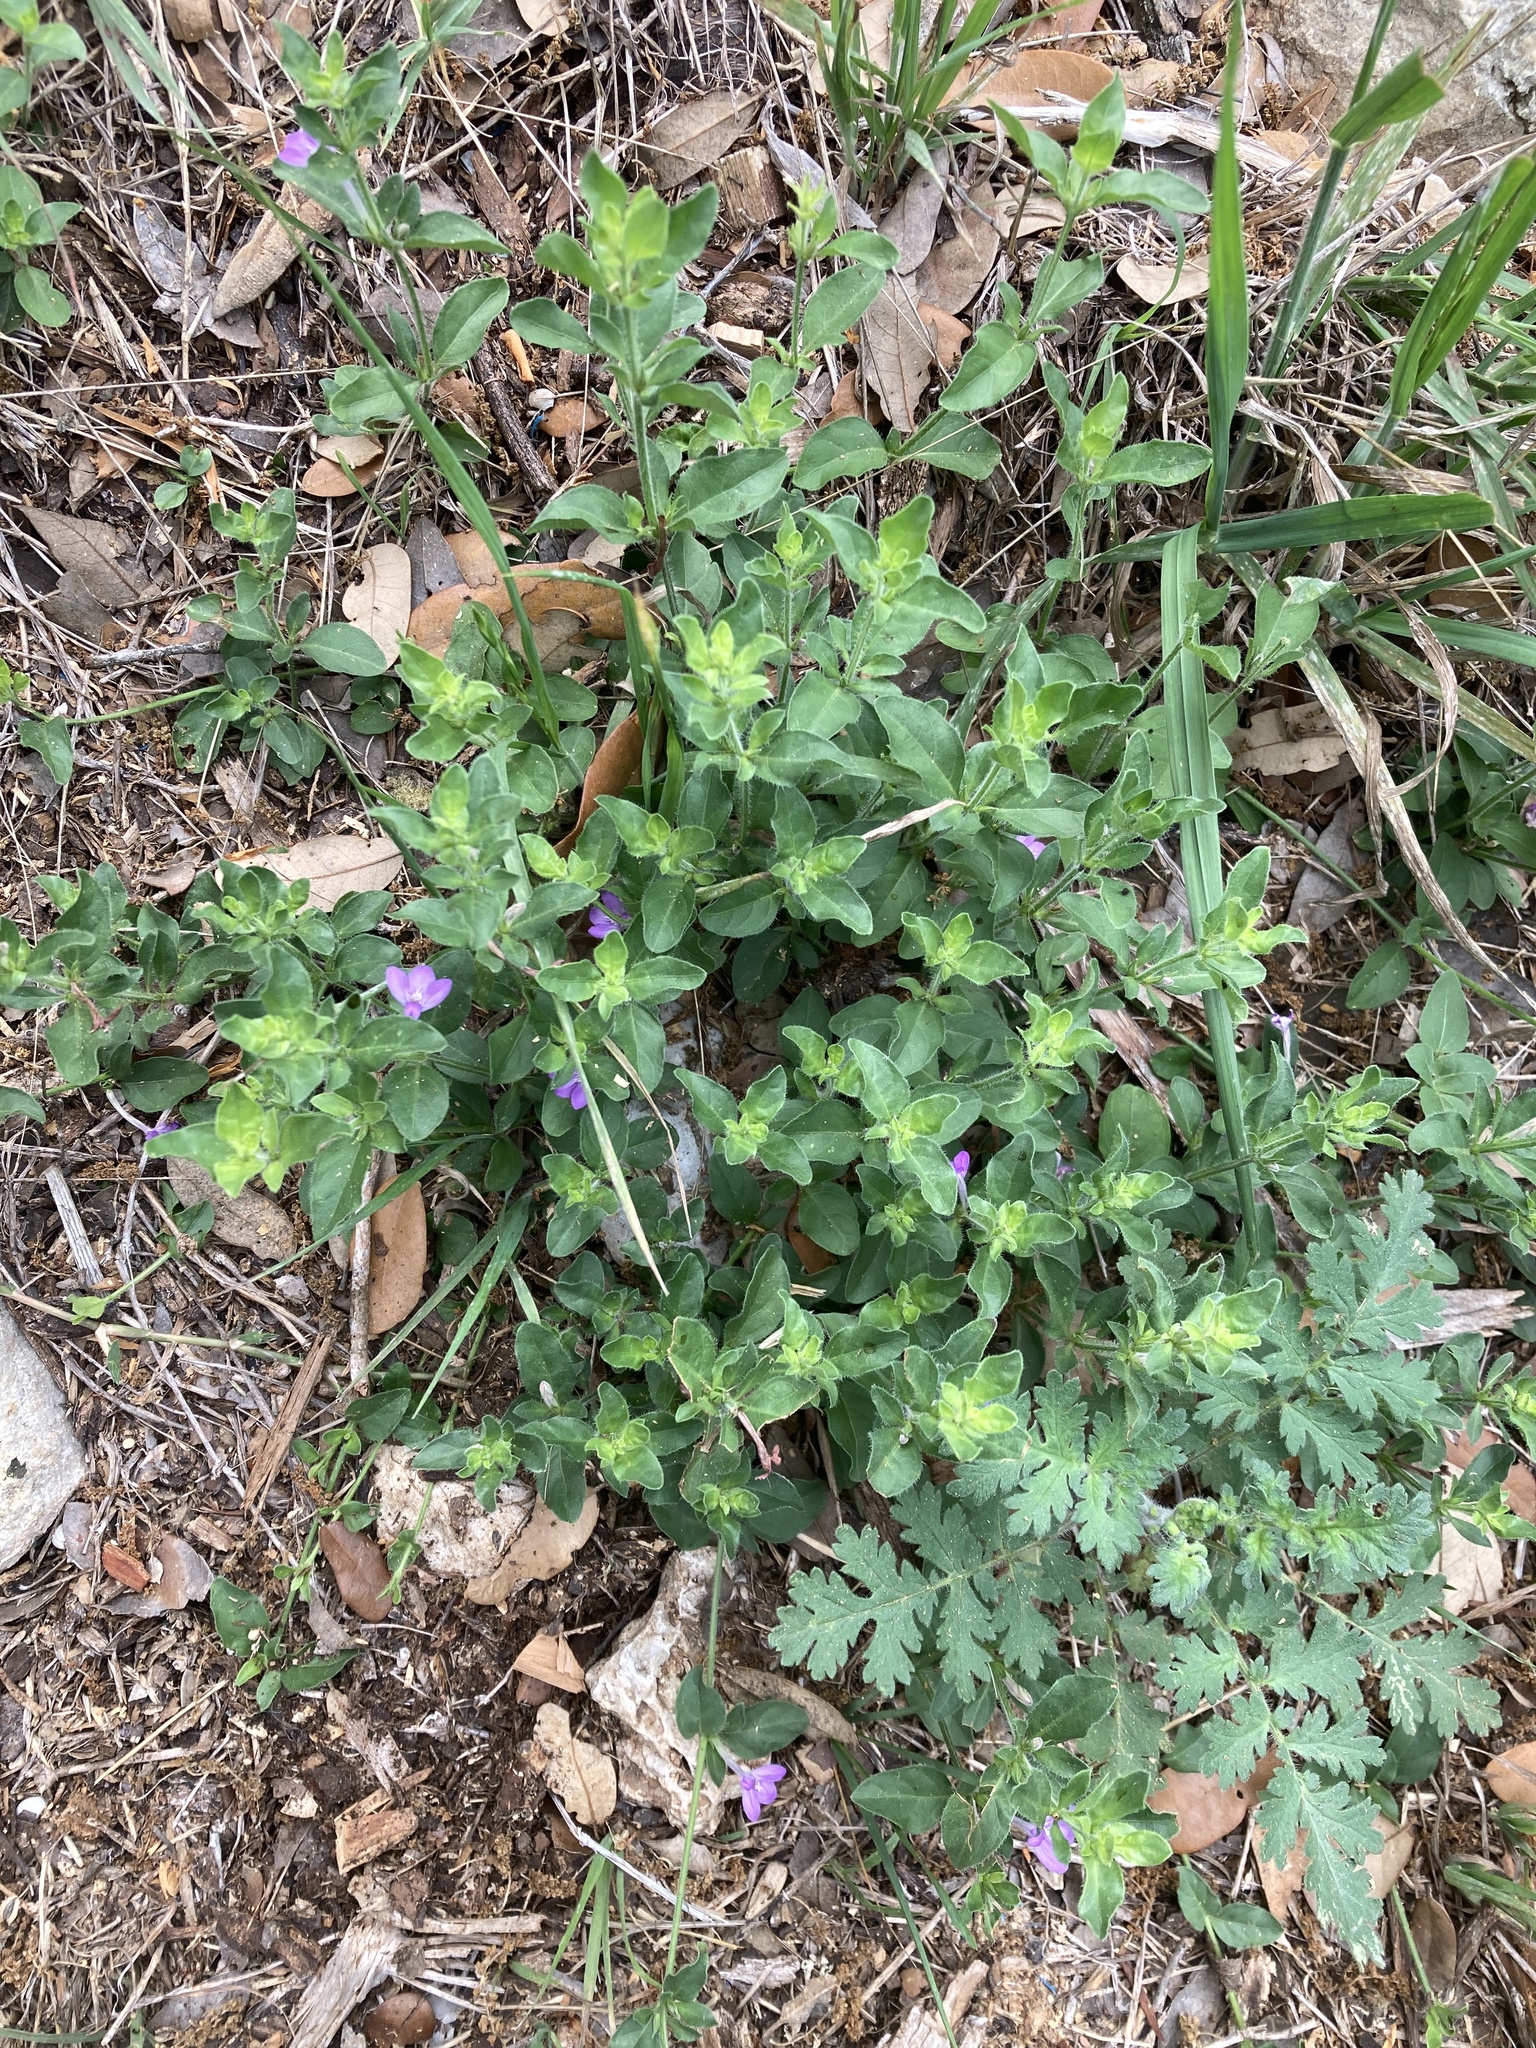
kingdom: Plantae
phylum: Tracheophyta
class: Magnoliopsida
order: Lamiales
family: Acanthaceae
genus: Justicia
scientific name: Justicia pilosella
